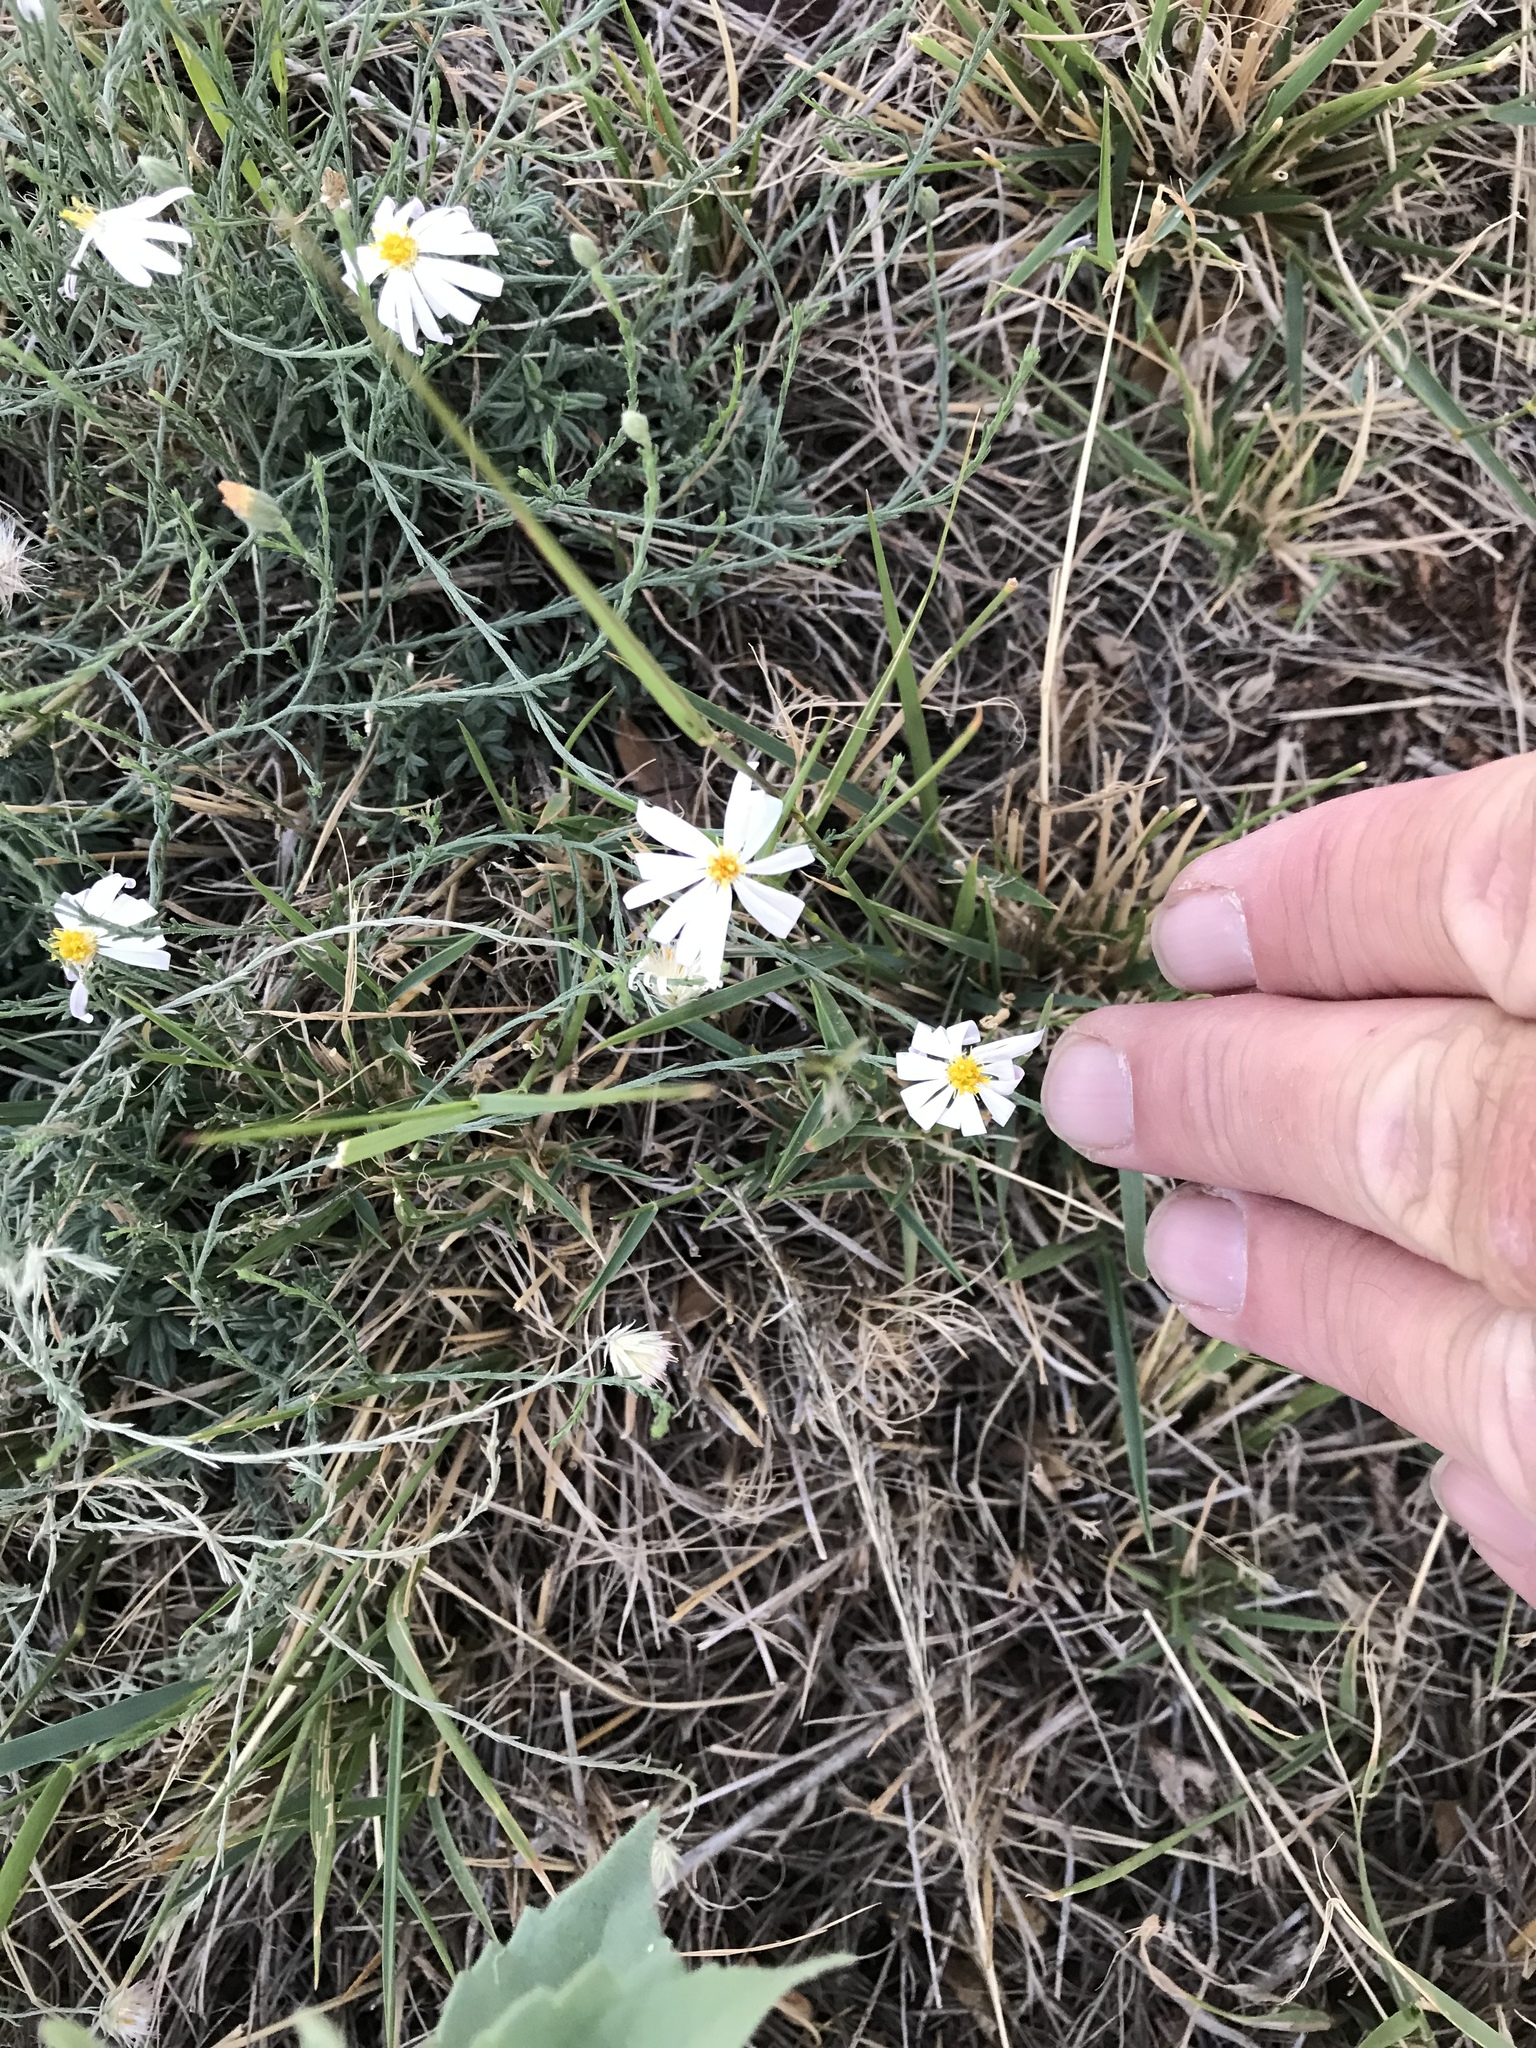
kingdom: Plantae
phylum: Tracheophyta
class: Magnoliopsida
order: Asterales
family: Asteraceae
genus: Chaetopappa
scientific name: Chaetopappa ericoides
